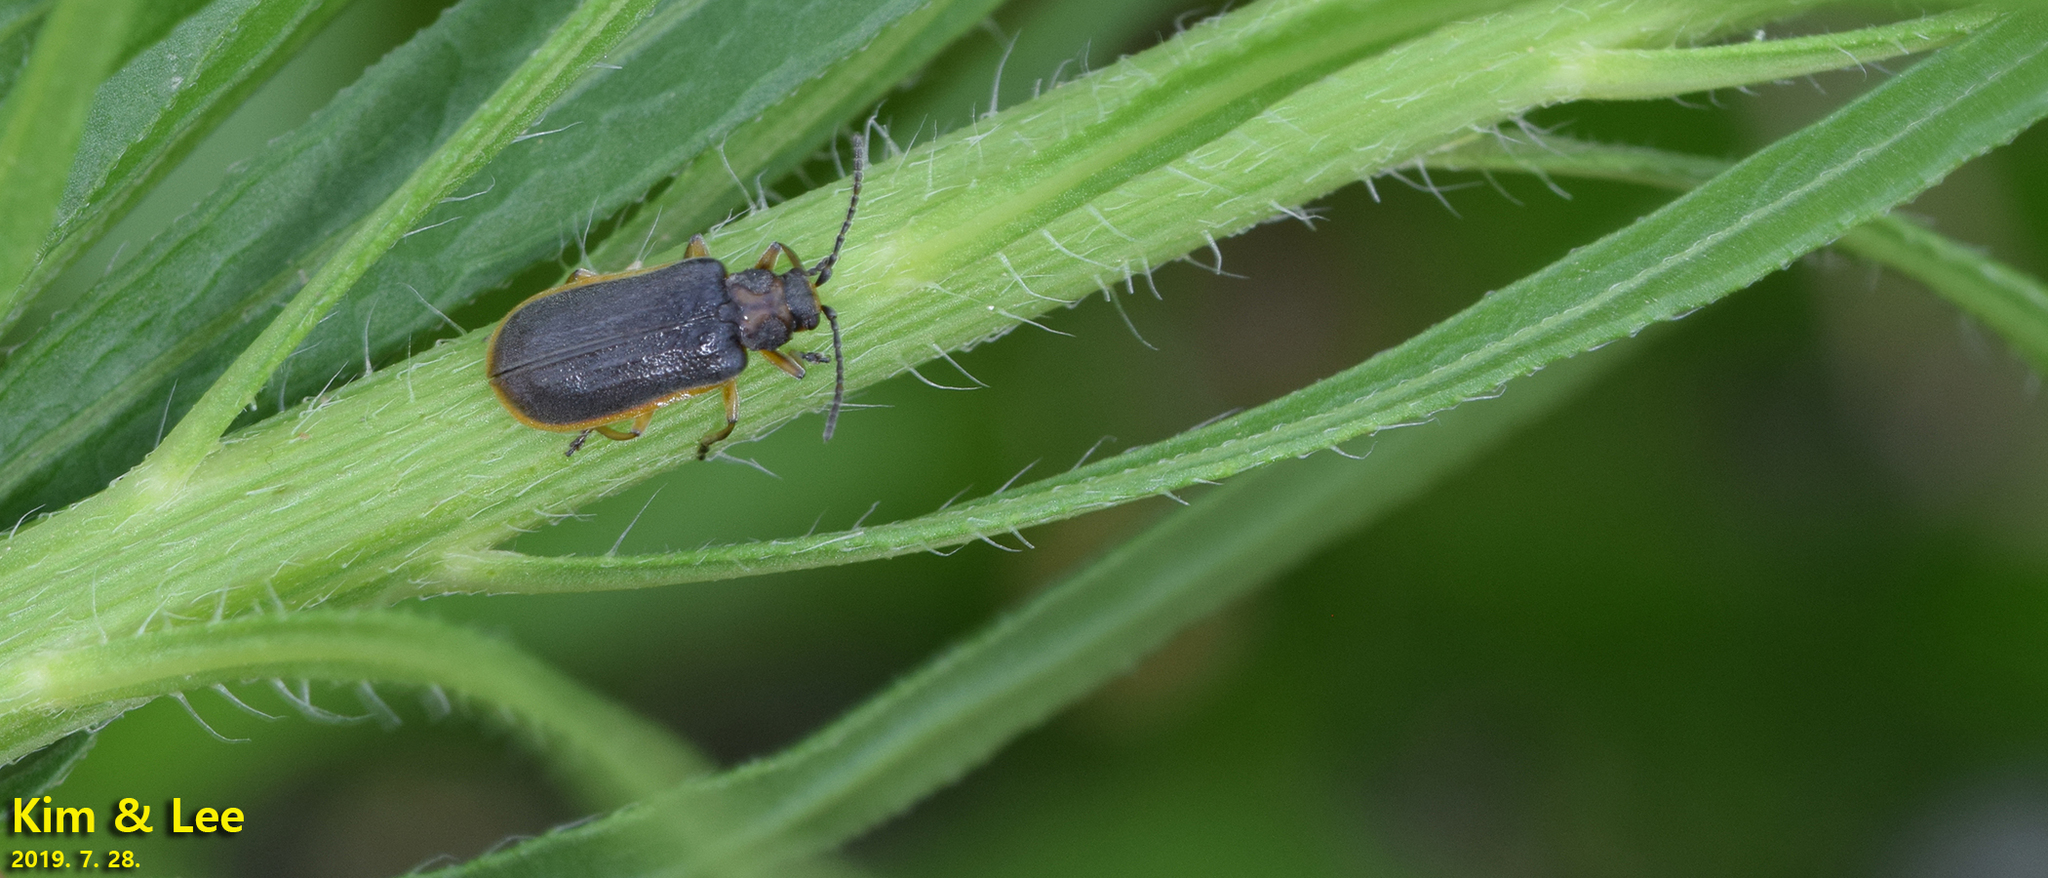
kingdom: Animalia
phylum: Arthropoda
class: Insecta
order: Coleoptera
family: Chrysomelidae
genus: Galerucella
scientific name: Galerucella nipponensis
